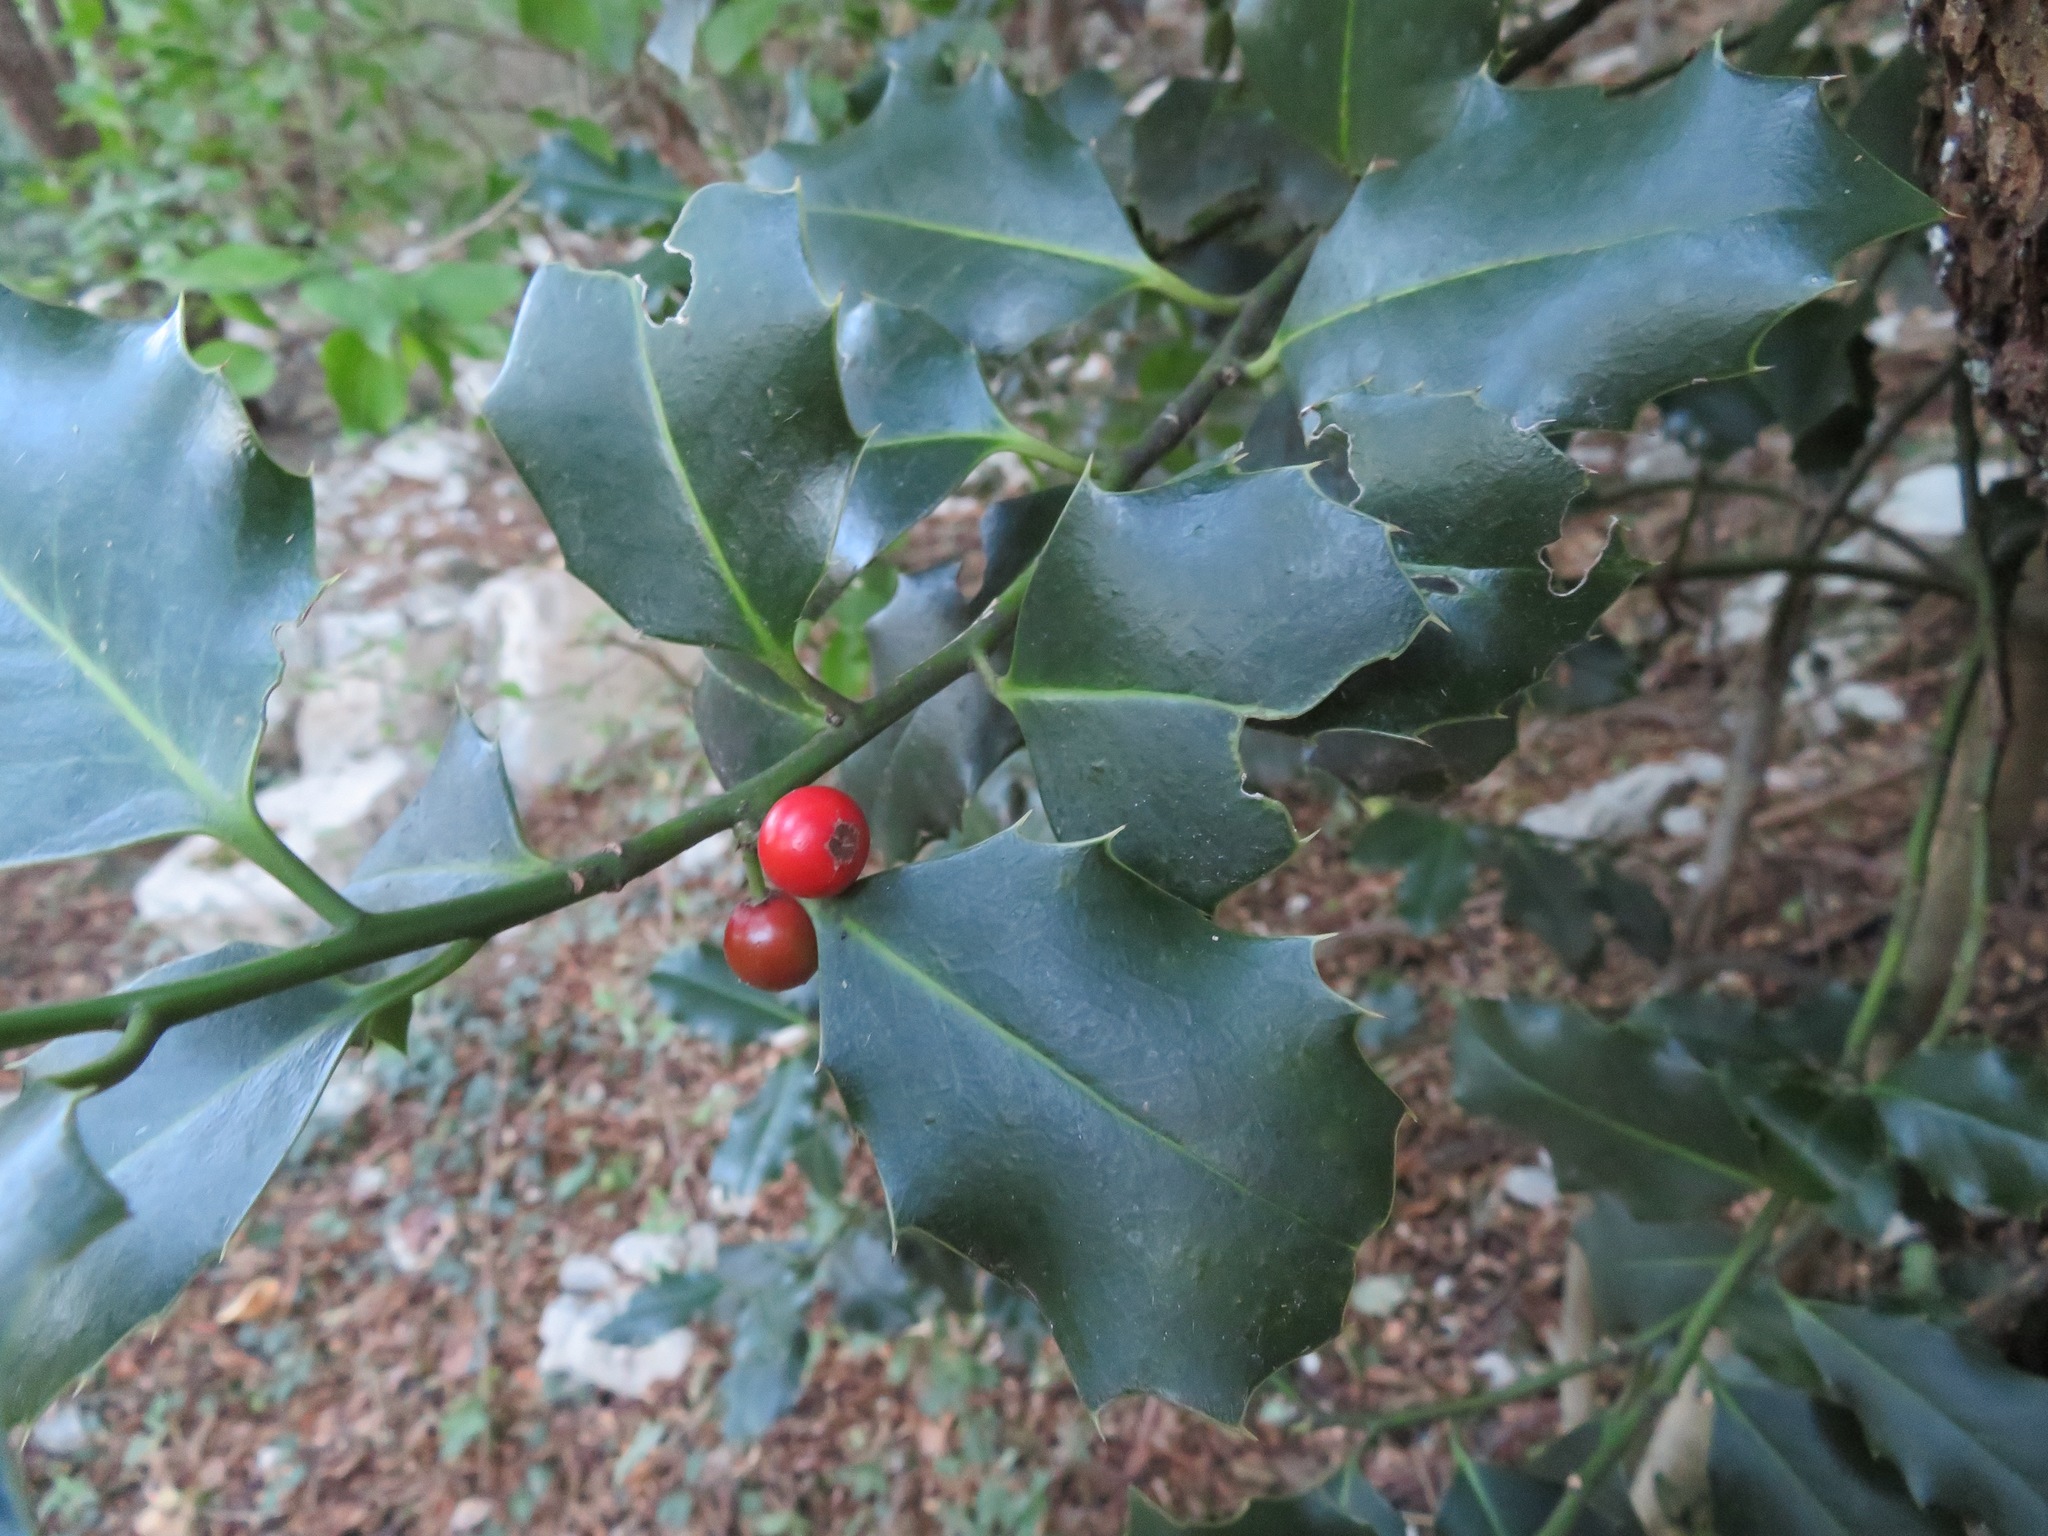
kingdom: Plantae
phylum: Tracheophyta
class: Magnoliopsida
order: Aquifoliales
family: Aquifoliaceae
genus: Ilex
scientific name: Ilex aquifolium
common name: English holly
